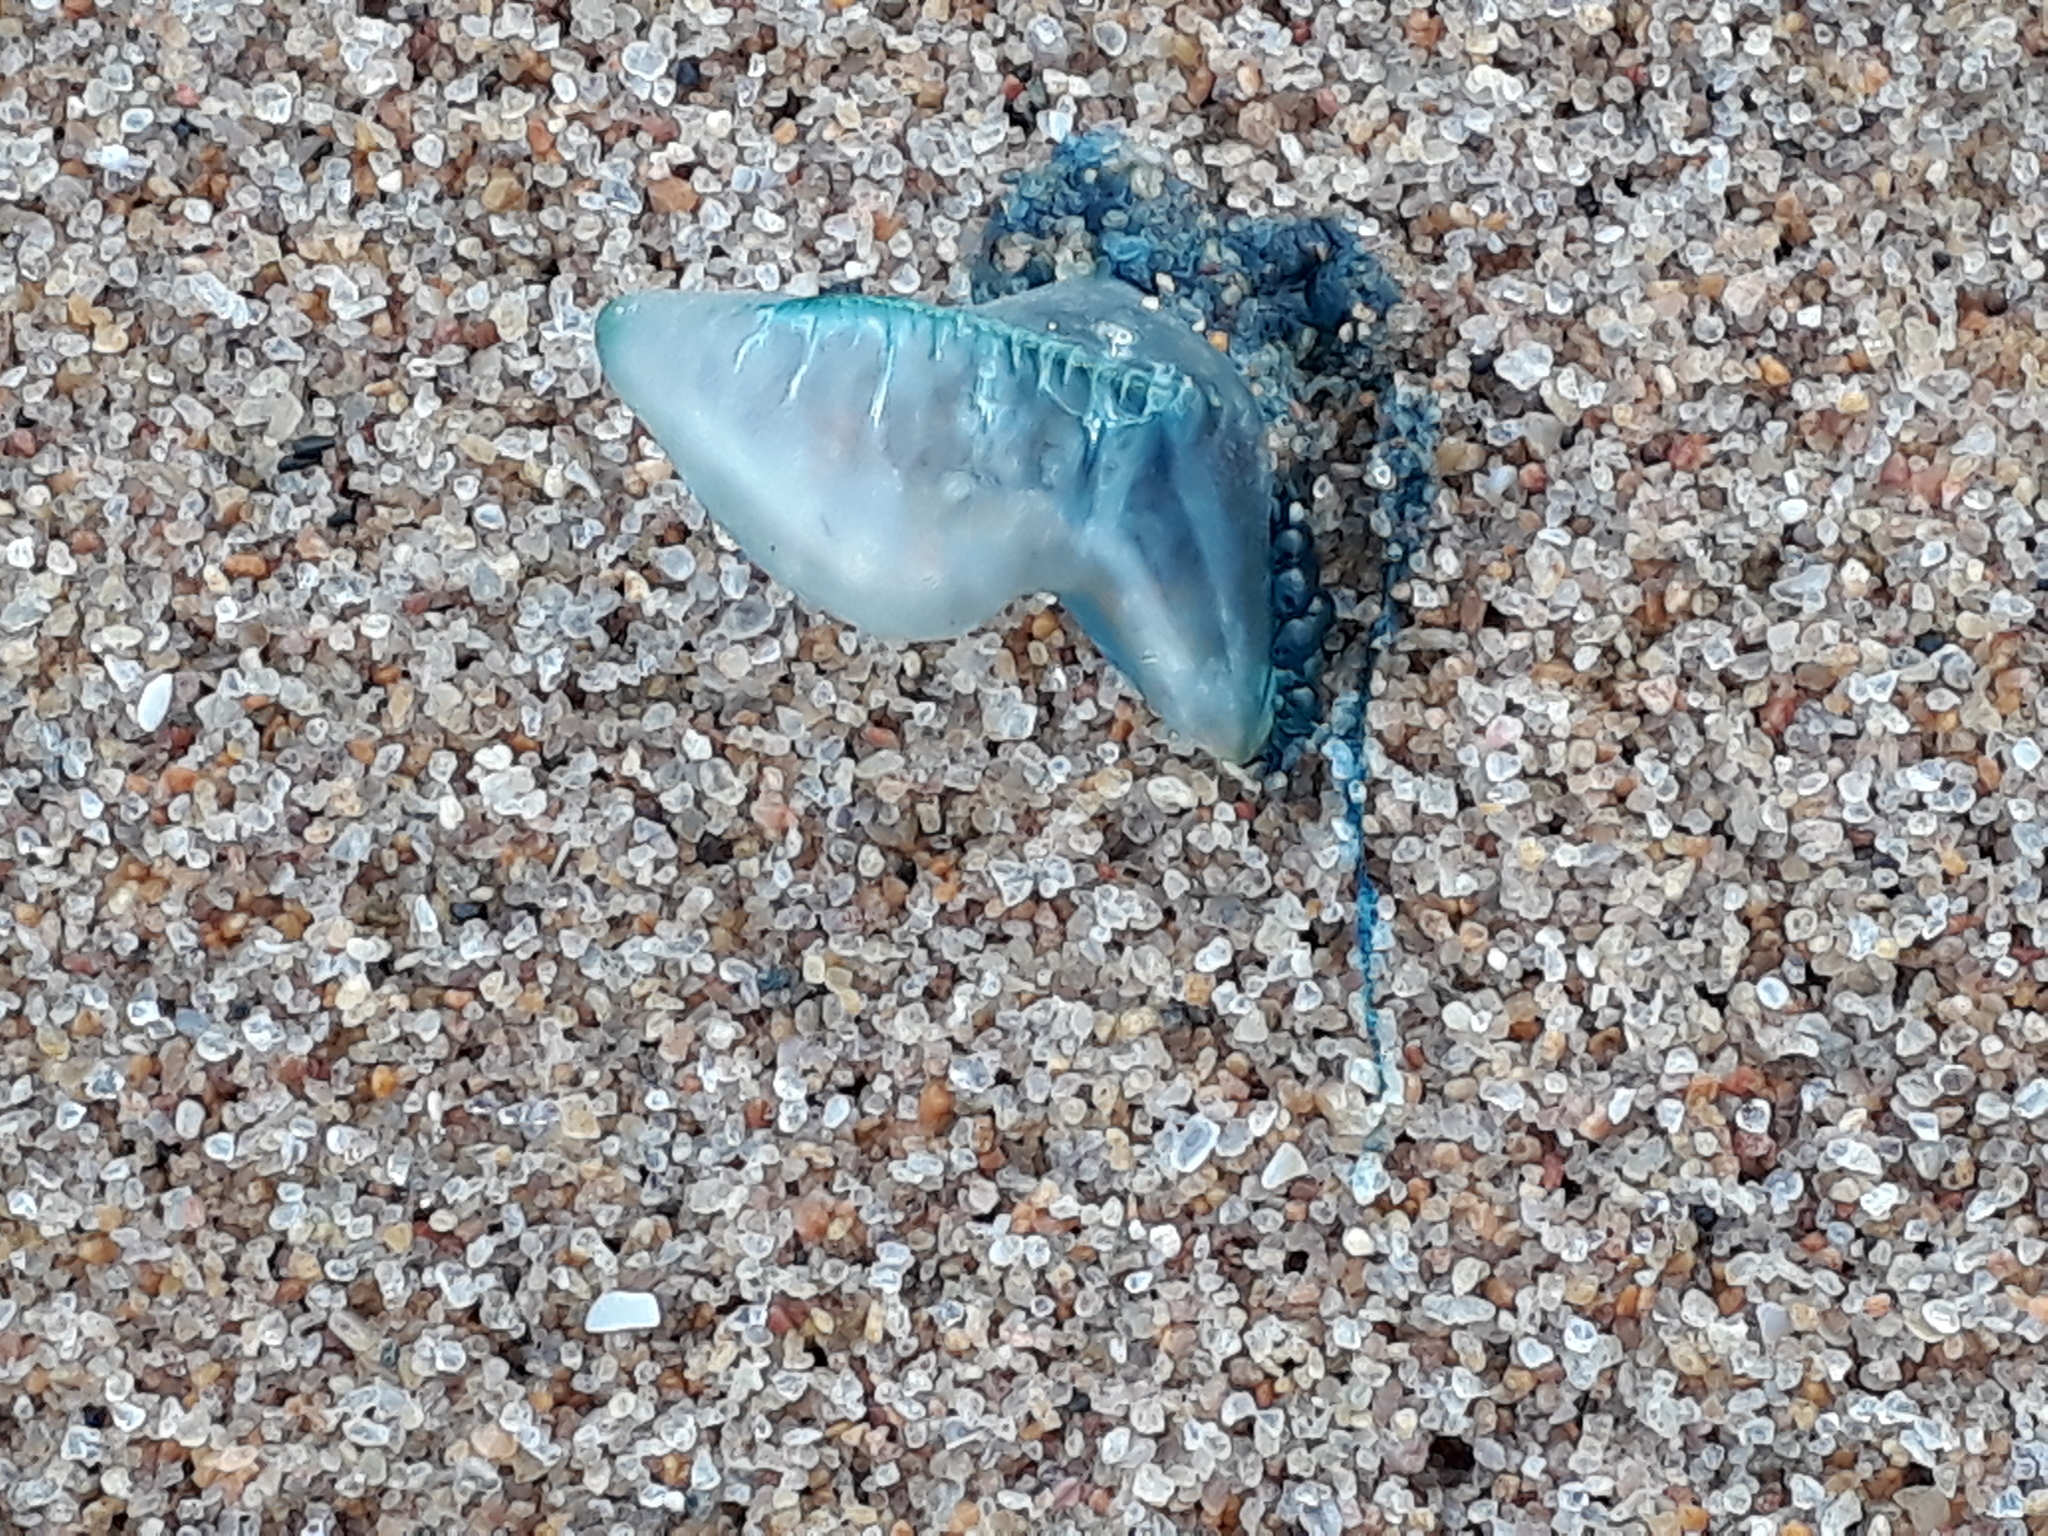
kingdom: Animalia
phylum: Cnidaria
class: Hydrozoa
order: Siphonophorae
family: Physaliidae
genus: Physalia
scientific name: Physalia physalis
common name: Portuguese man-of-war
